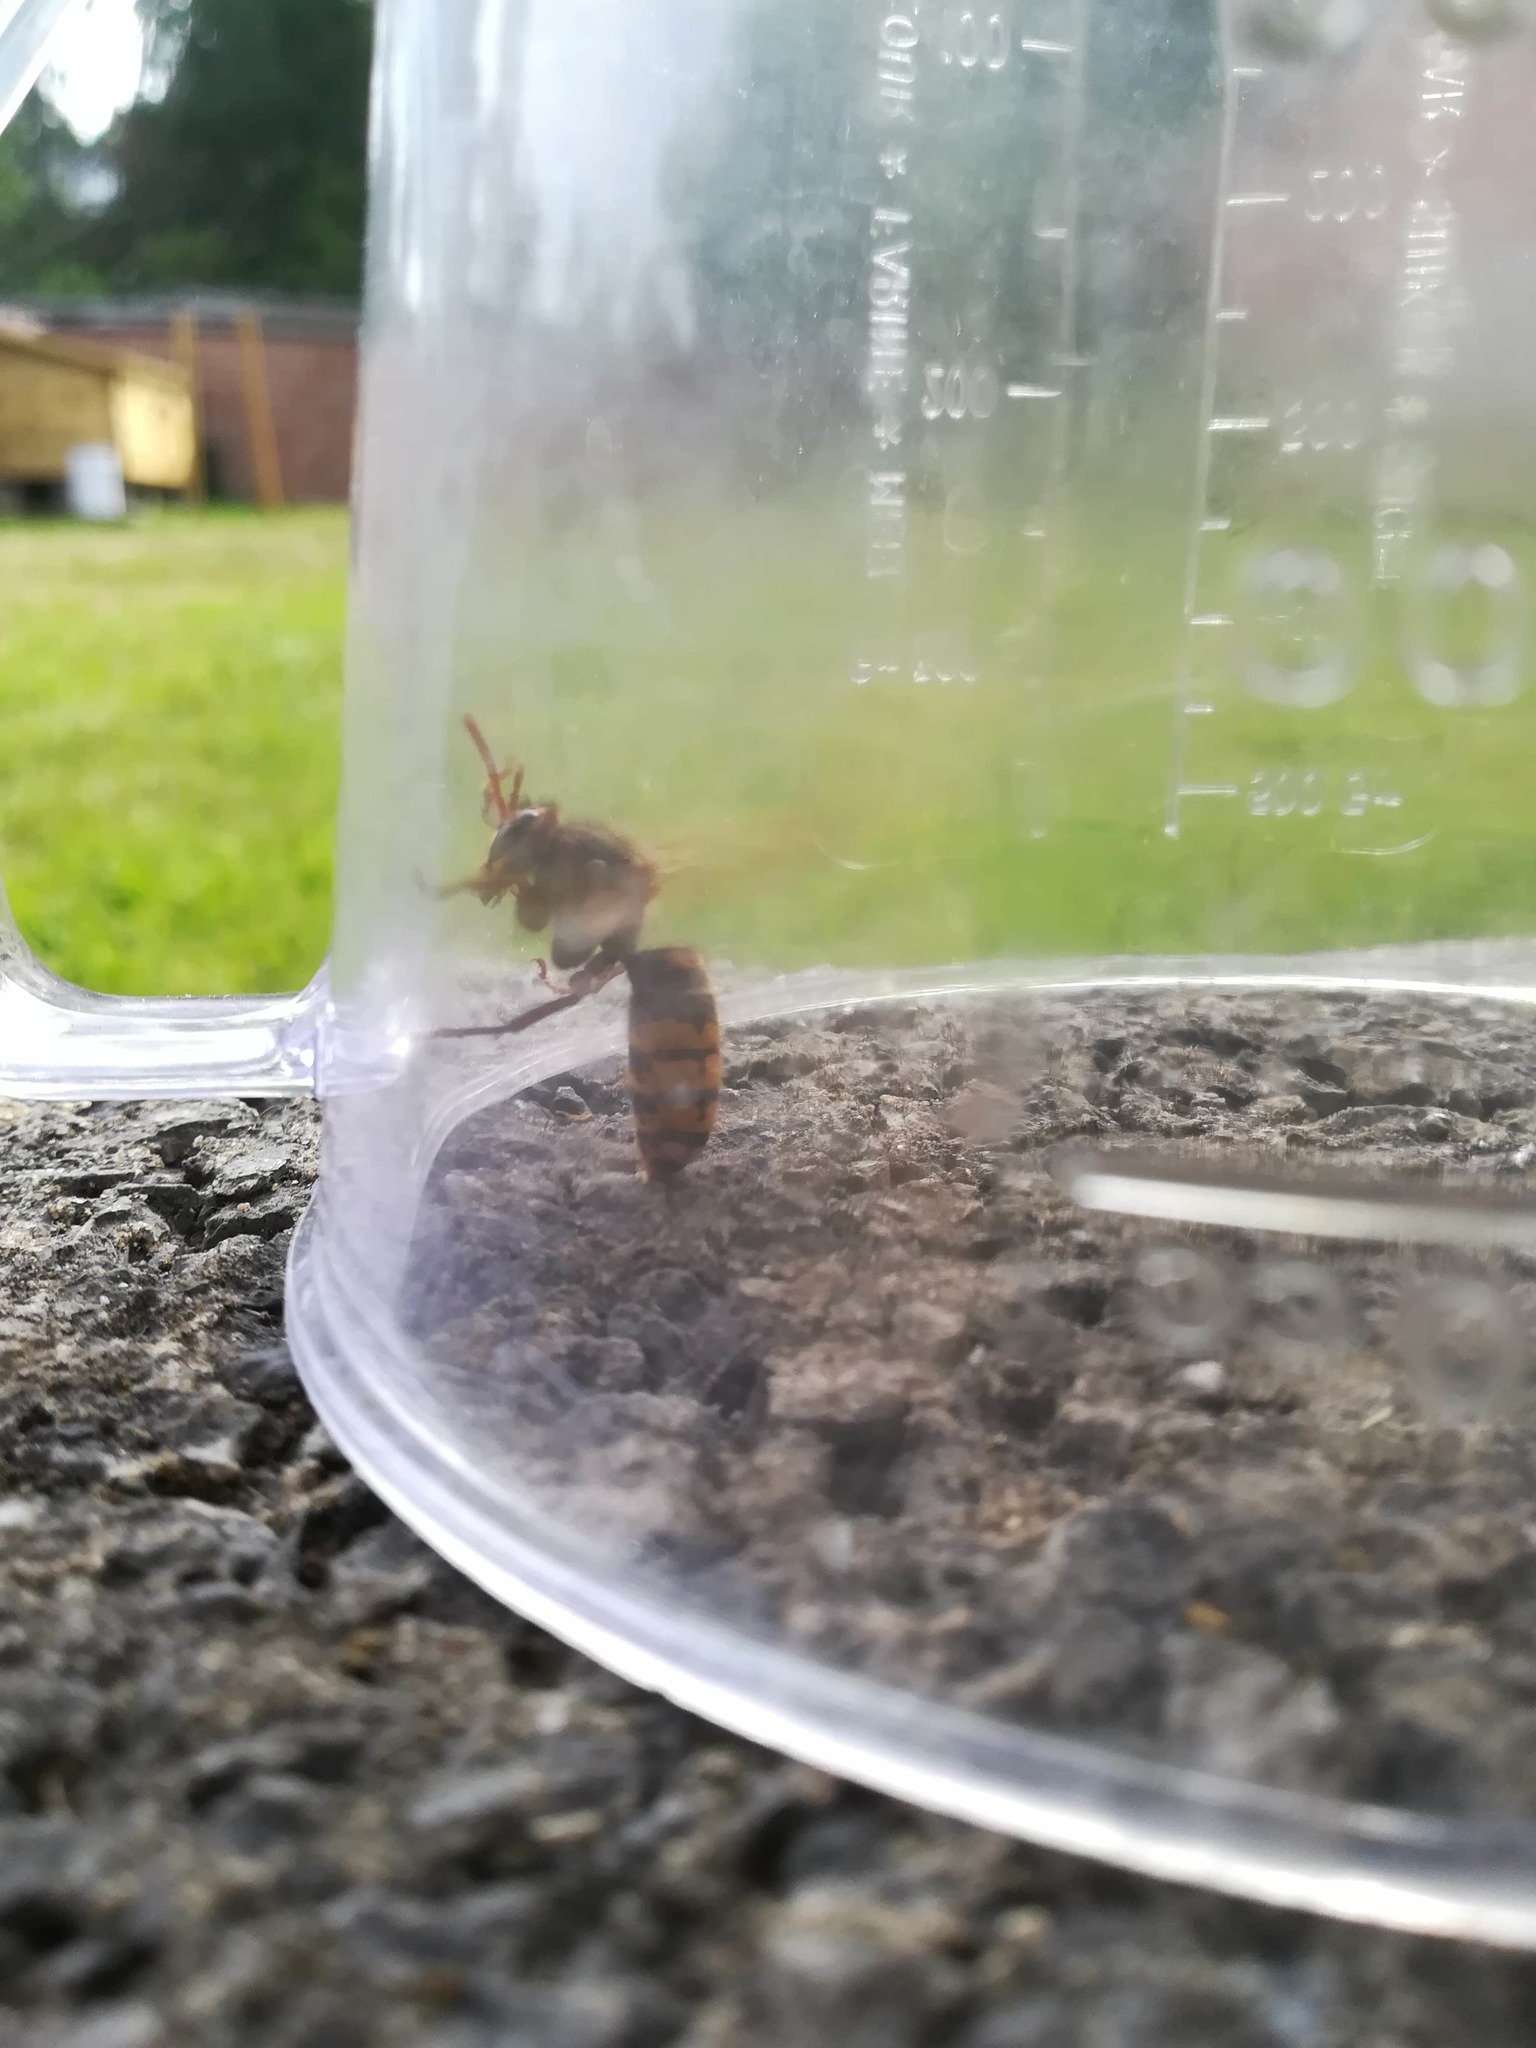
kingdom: Animalia
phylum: Arthropoda
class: Insecta
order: Hymenoptera
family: Vespidae
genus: Vespa
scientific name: Vespa crabro
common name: Hornet
